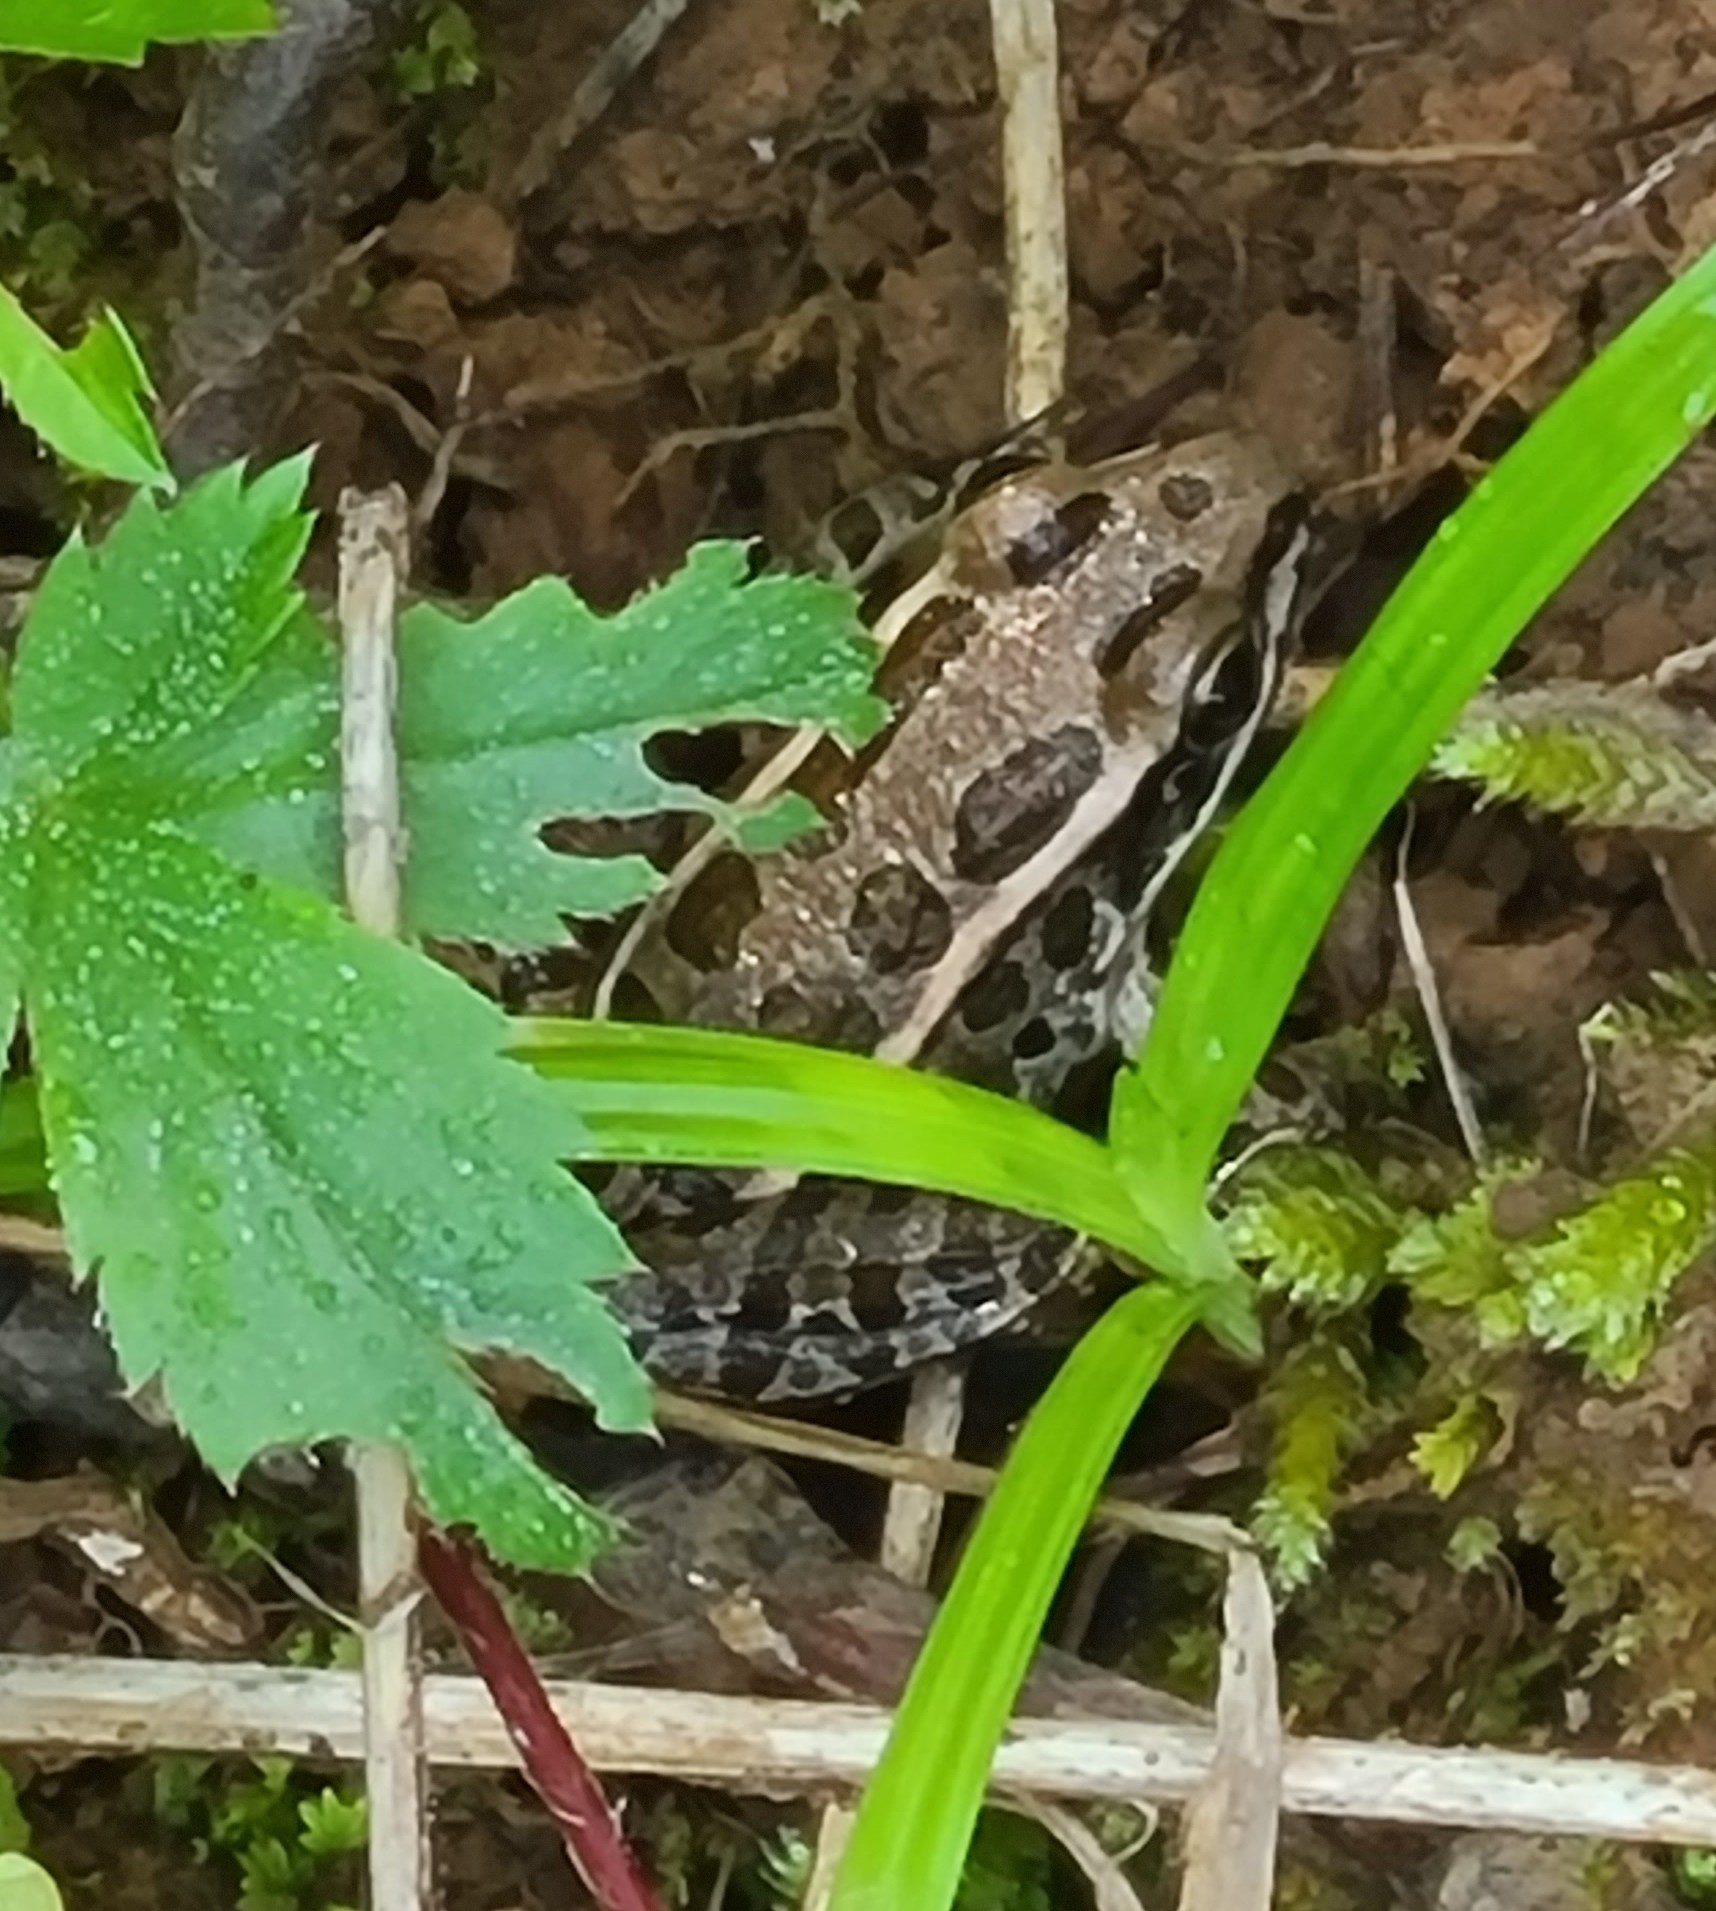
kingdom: Animalia
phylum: Chordata
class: Amphibia
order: Anura
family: Ranidae
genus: Lithobates
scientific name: Lithobates palustris
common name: Pickerel frog
